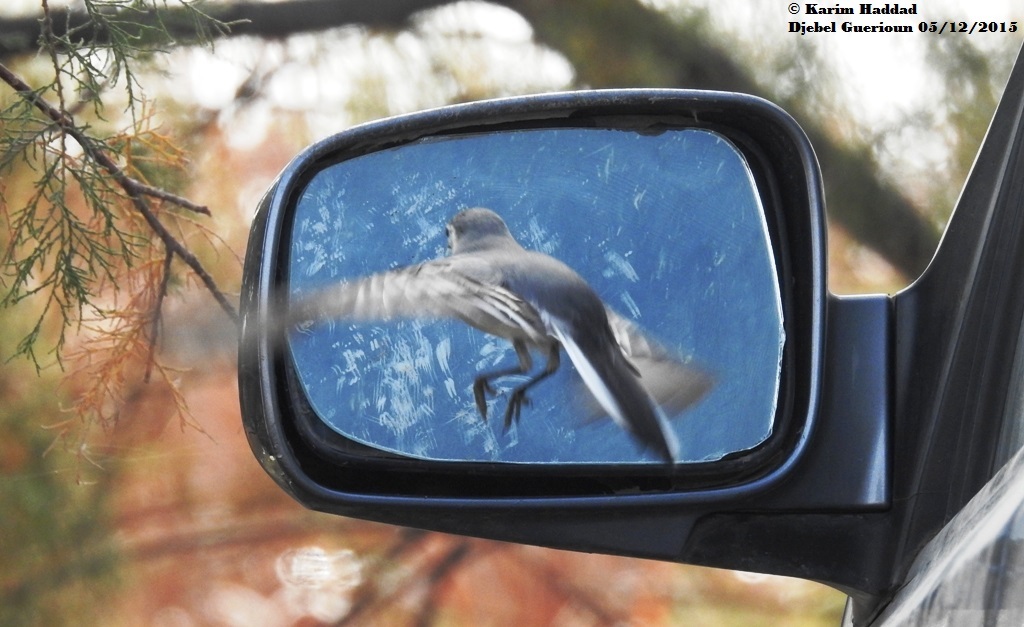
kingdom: Animalia
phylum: Chordata
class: Aves
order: Passeriformes
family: Motacillidae
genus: Motacilla
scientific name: Motacilla alba
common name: White wagtail
